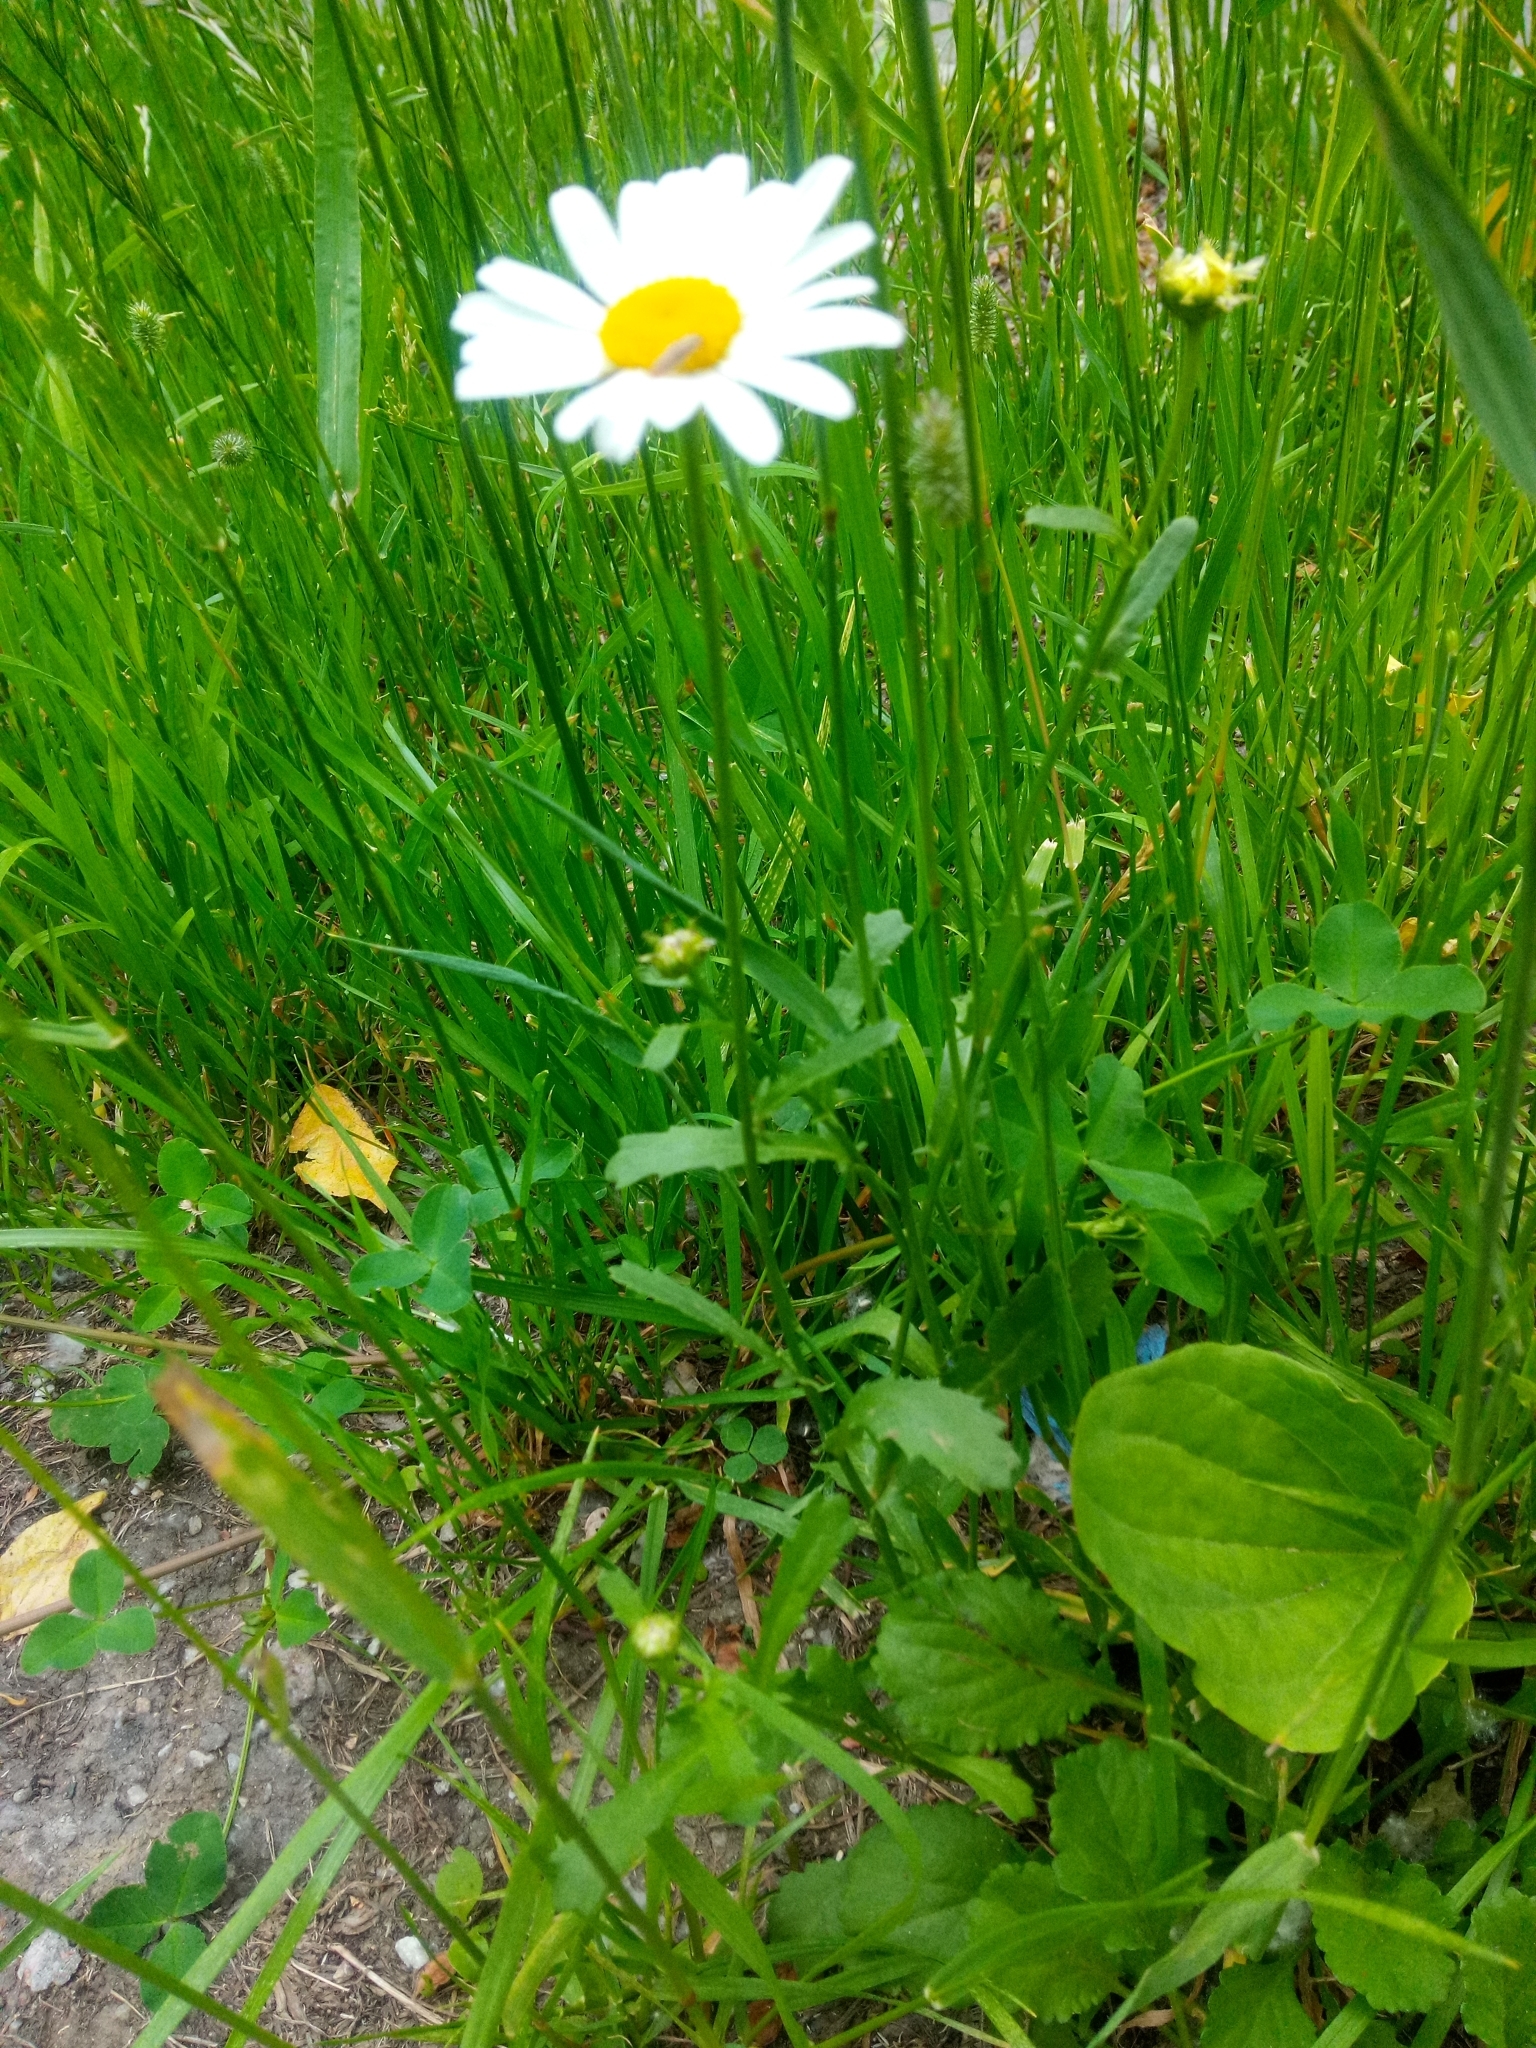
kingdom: Plantae
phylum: Tracheophyta
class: Magnoliopsida
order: Asterales
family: Asteraceae
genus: Leucanthemum
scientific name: Leucanthemum vulgare
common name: Oxeye daisy
